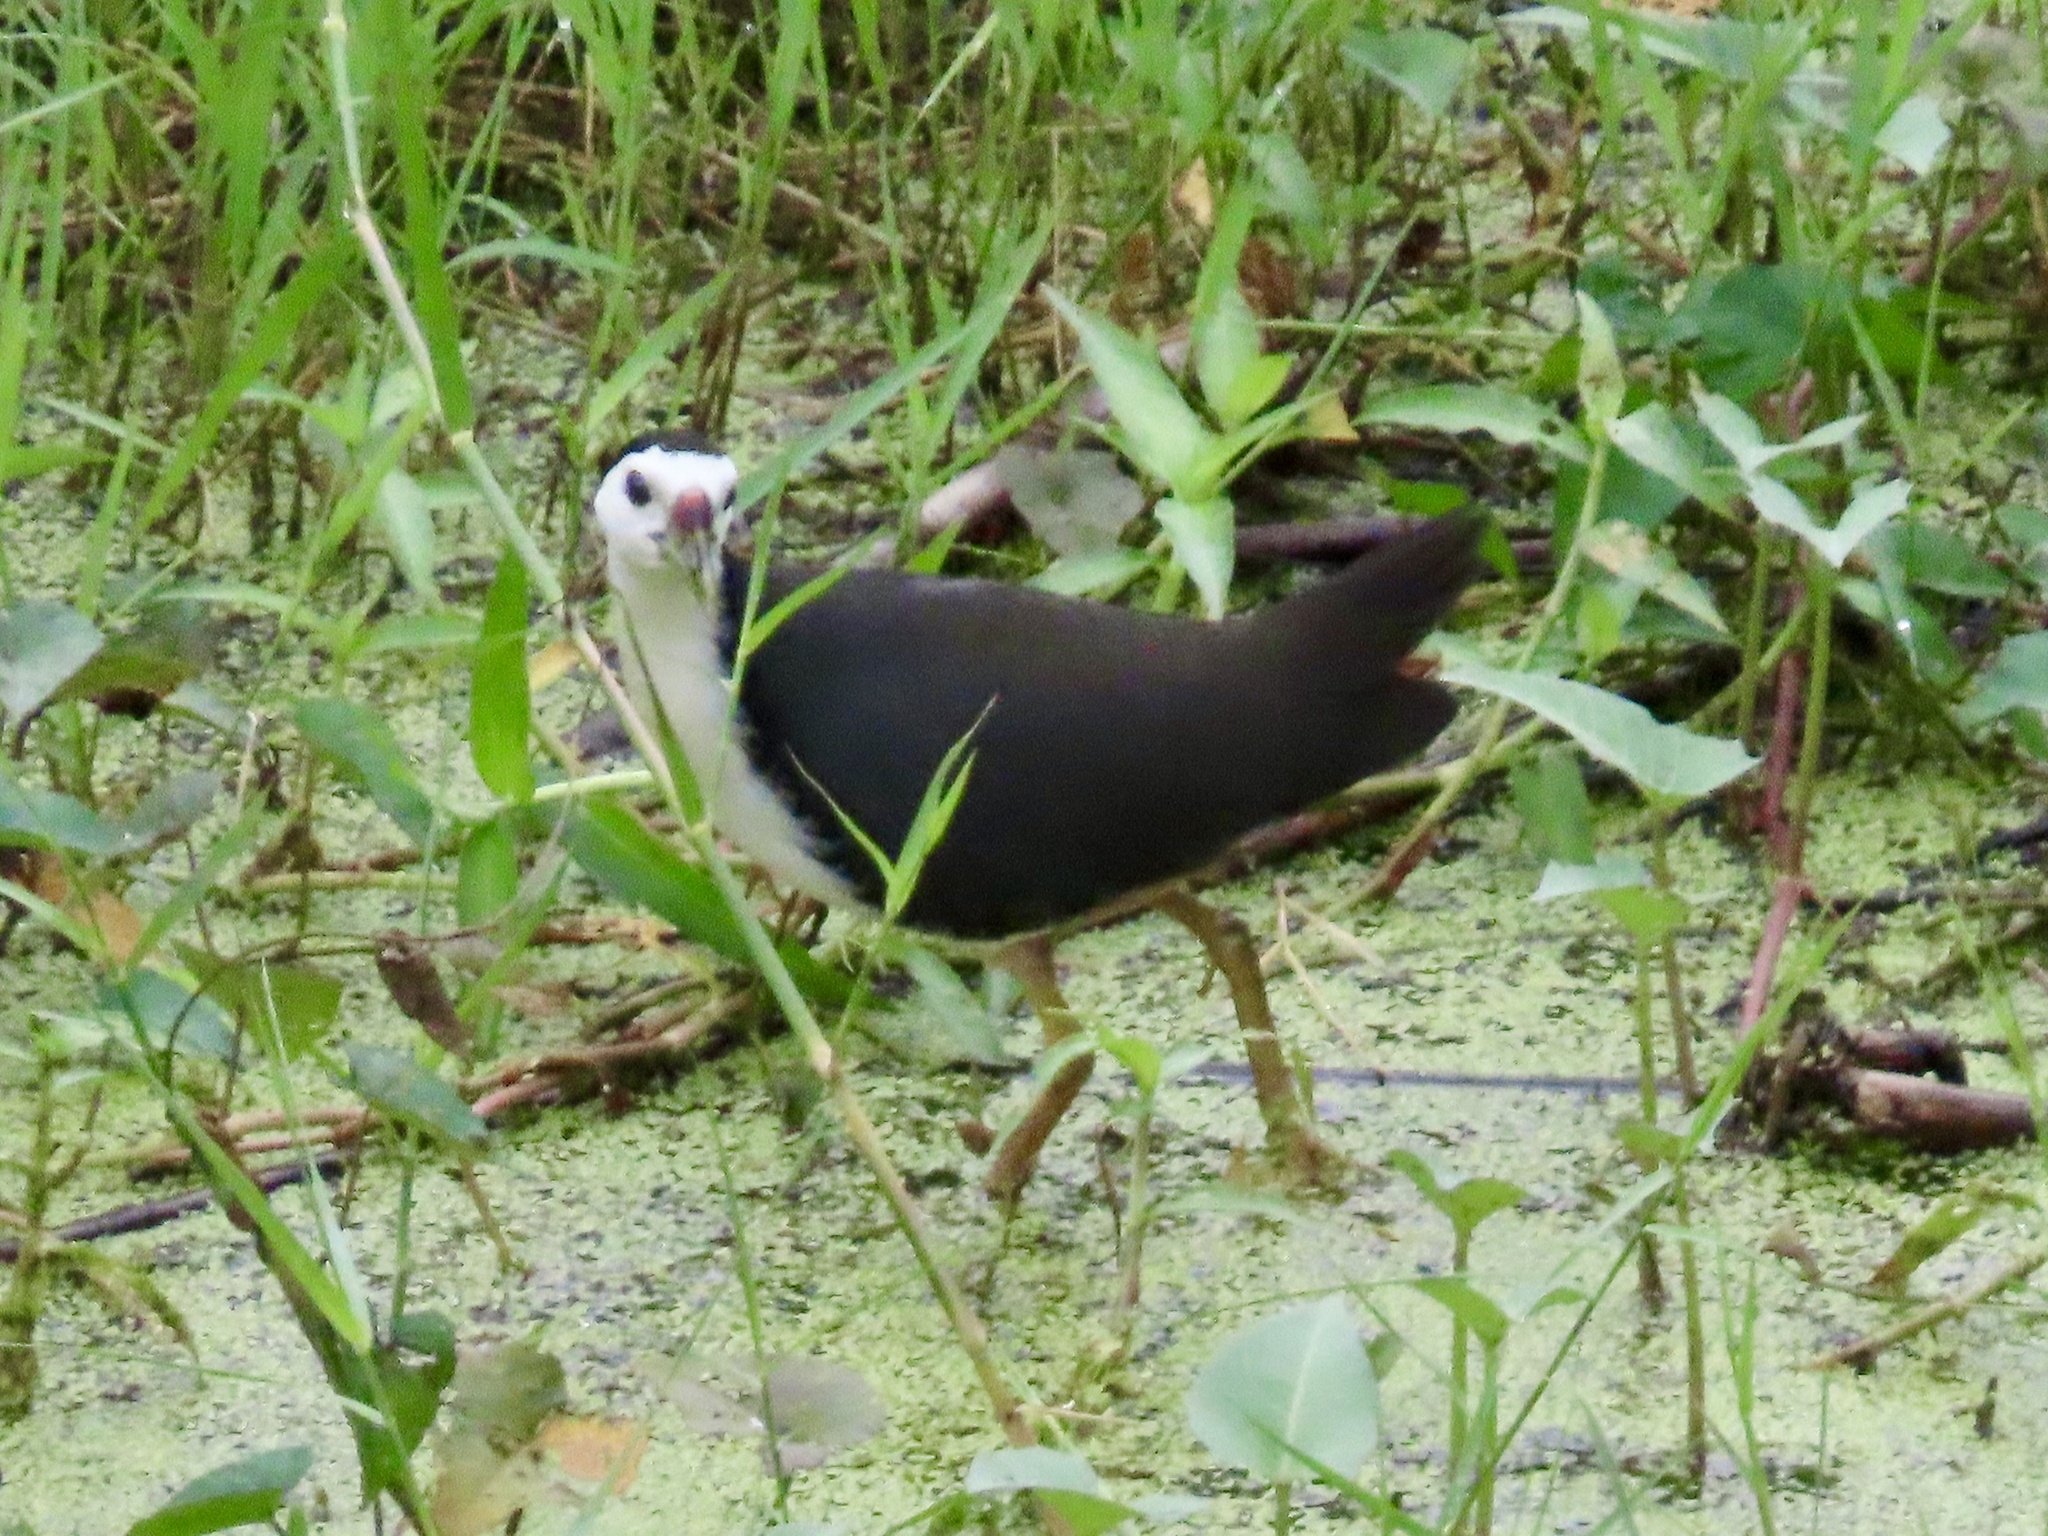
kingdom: Animalia
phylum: Chordata
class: Aves
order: Gruiformes
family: Rallidae
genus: Amaurornis
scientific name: Amaurornis phoenicurus
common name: White-breasted waterhen
